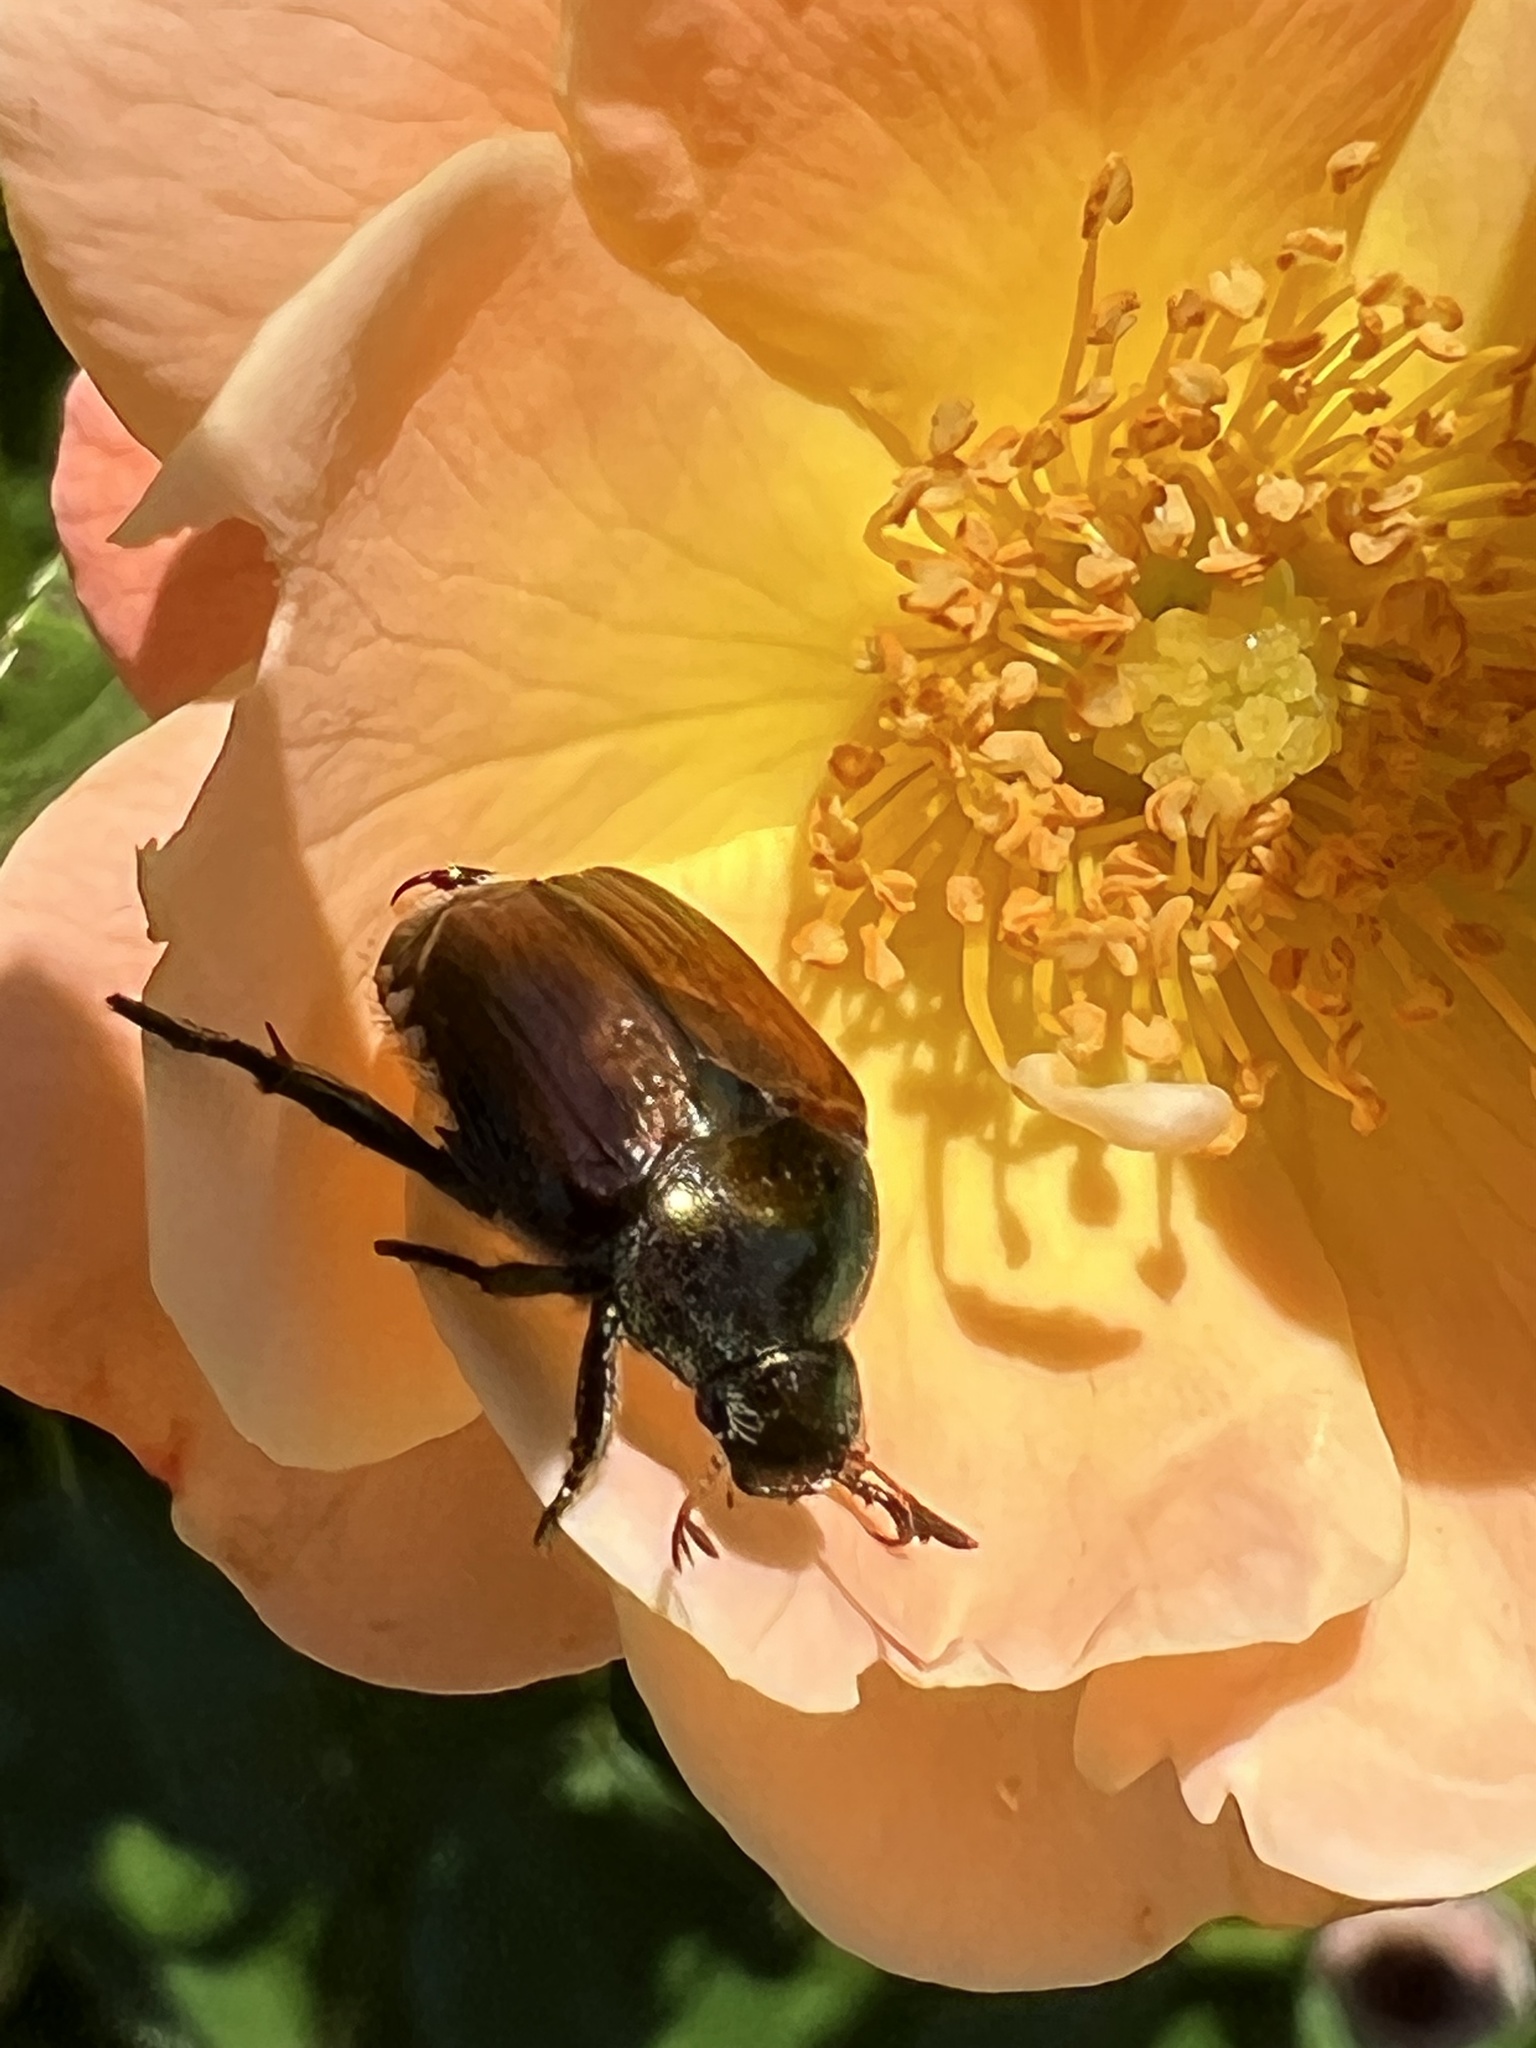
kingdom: Animalia
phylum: Arthropoda
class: Insecta
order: Coleoptera
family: Scarabaeidae
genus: Popillia
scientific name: Popillia japonica
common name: Japanese beetle
